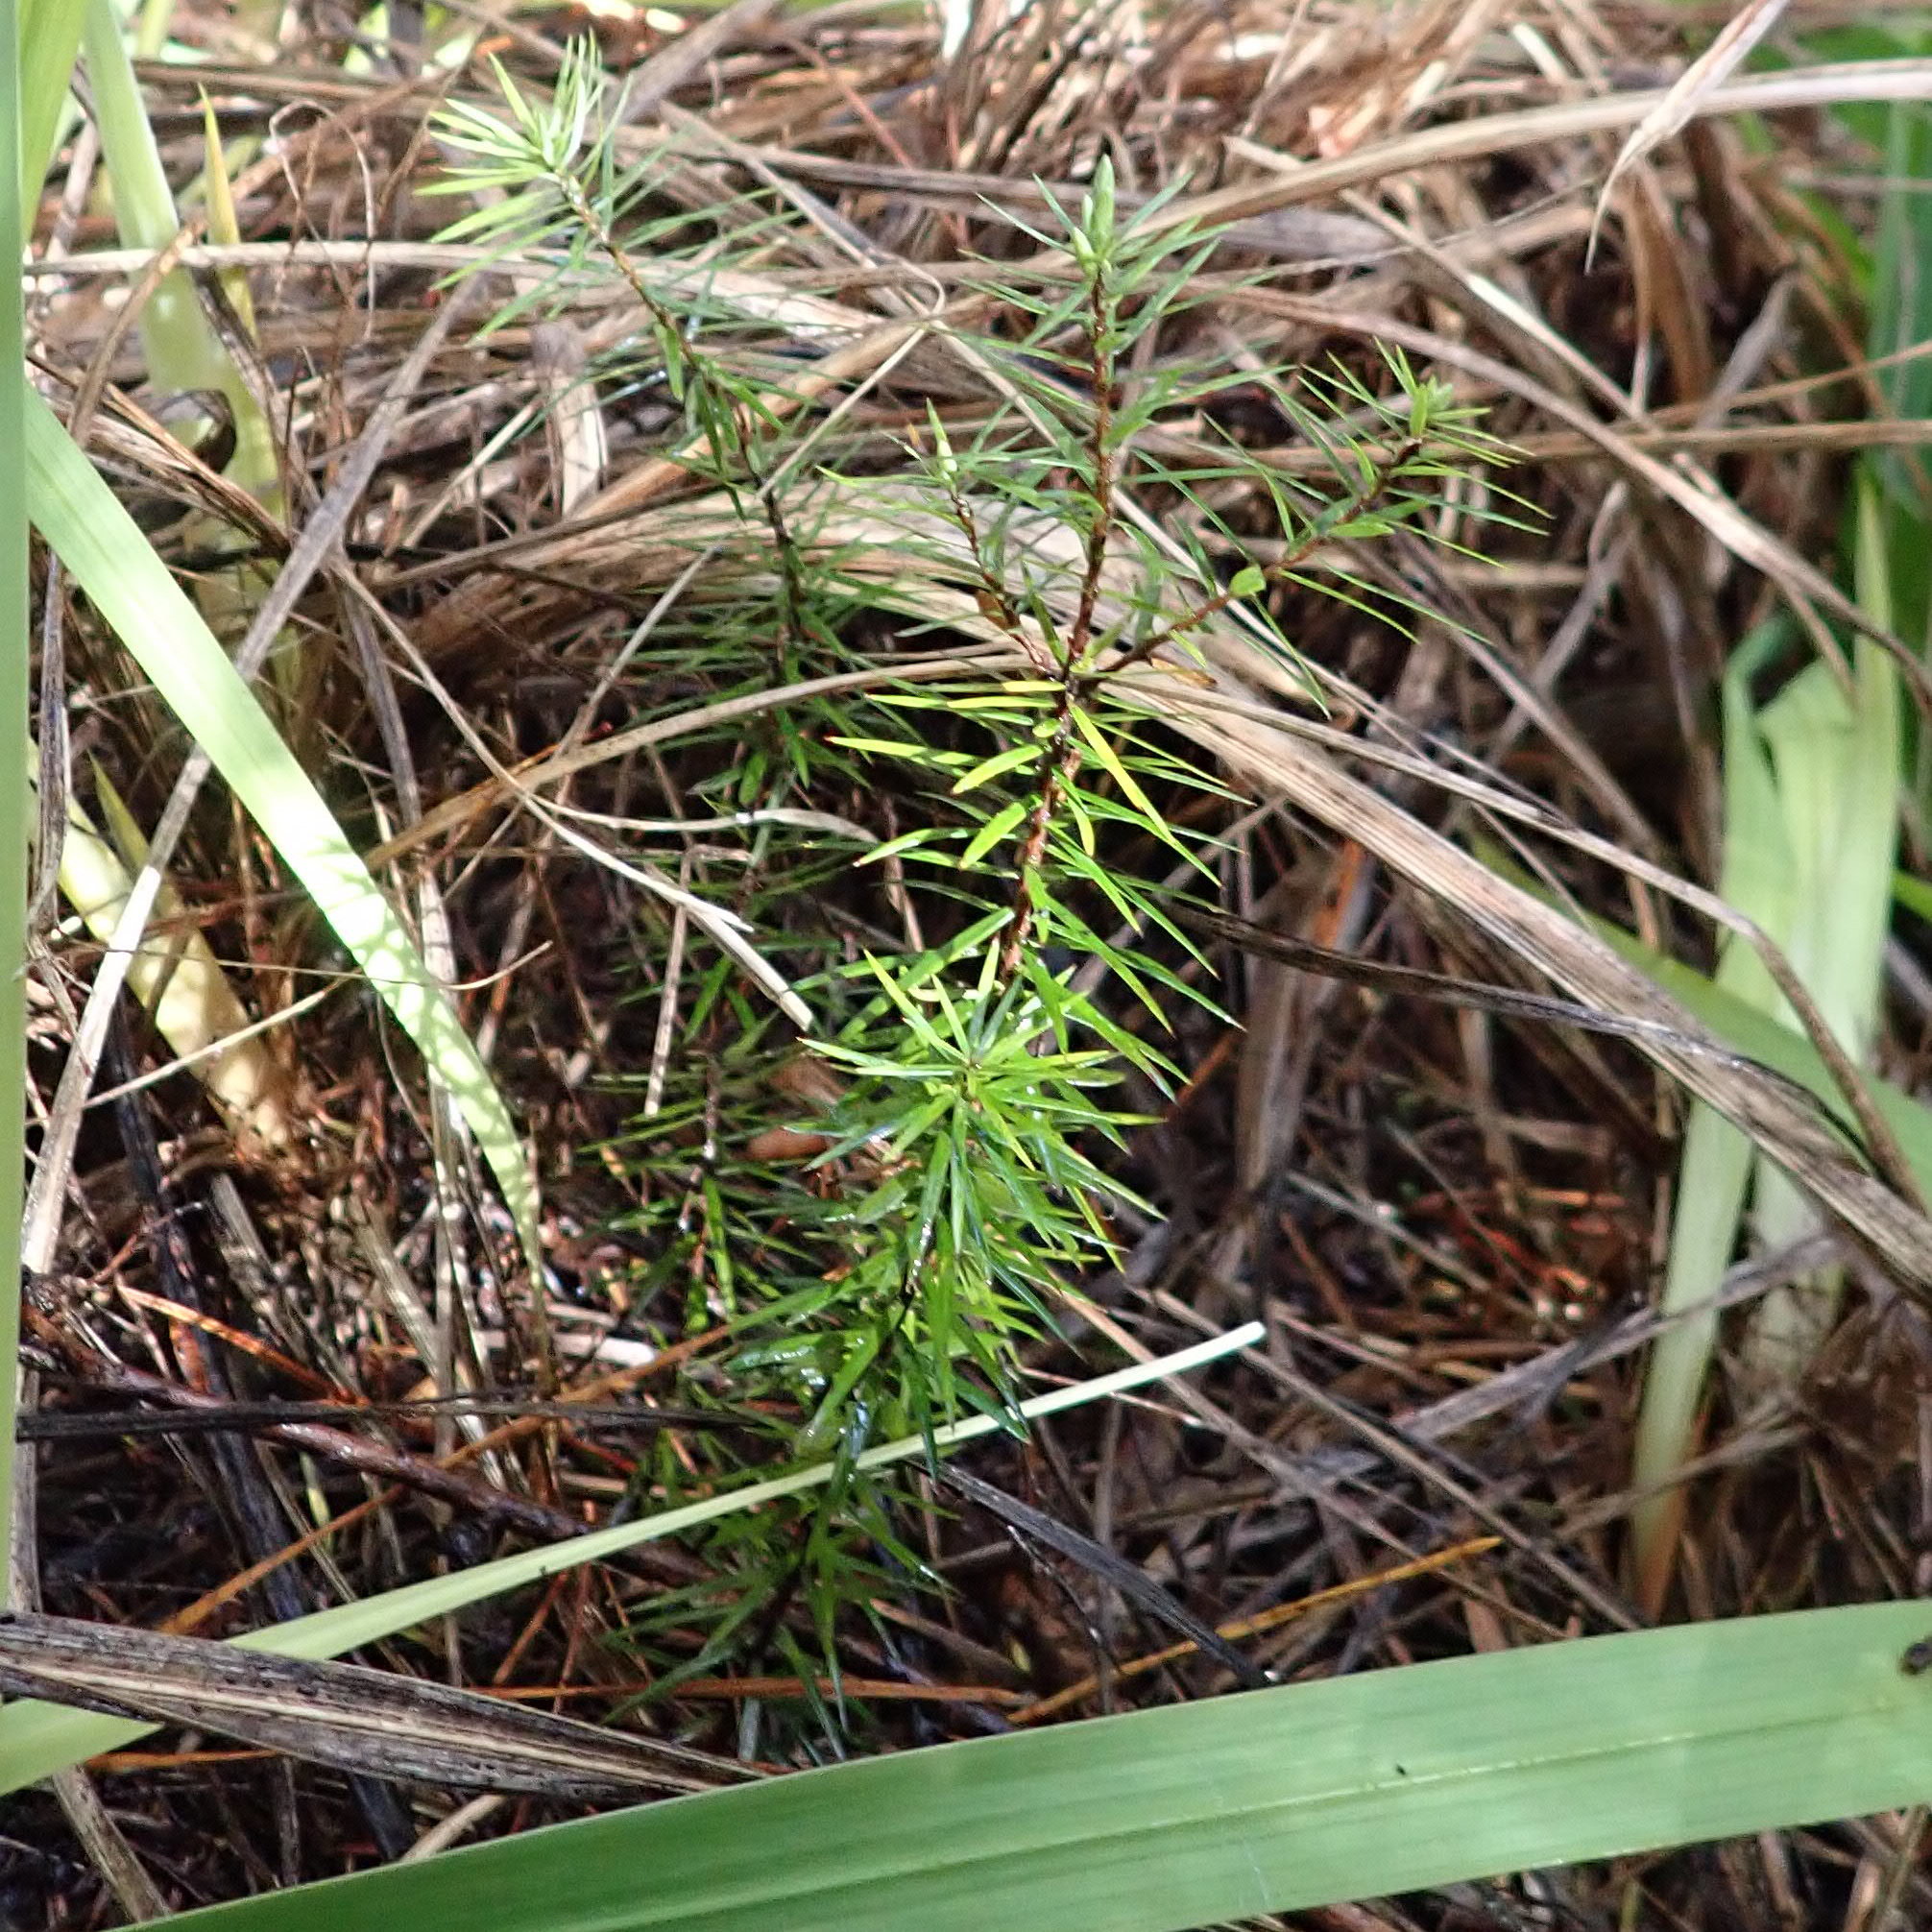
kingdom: Plantae
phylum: Tracheophyta
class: Magnoliopsida
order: Ericales
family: Ericaceae
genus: Leptecophylla
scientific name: Leptecophylla juniperina
